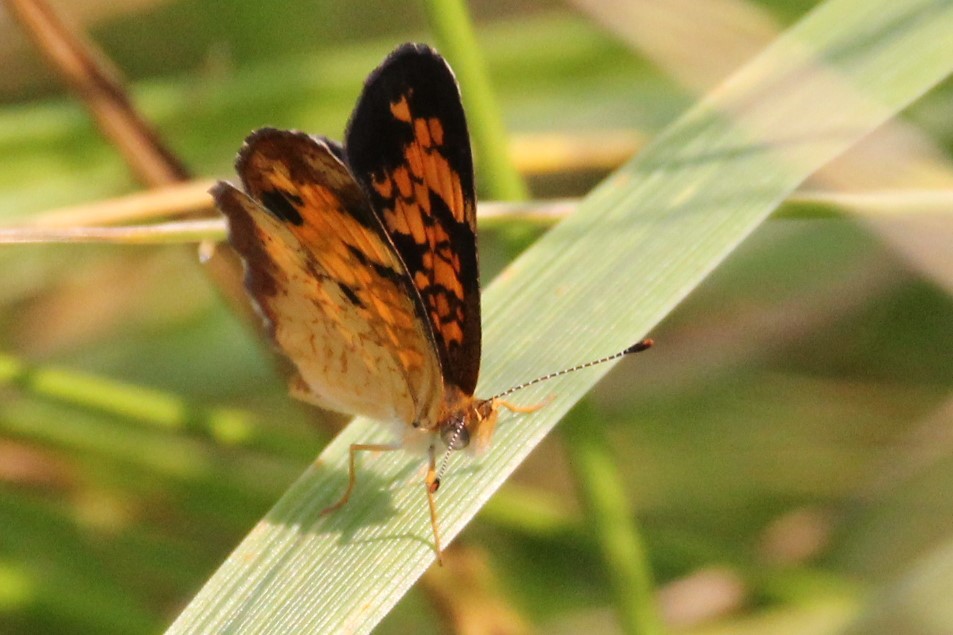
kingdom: Animalia
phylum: Arthropoda
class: Insecta
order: Lepidoptera
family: Nymphalidae
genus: Phyciodes
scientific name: Phyciodes tharos
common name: Pearl crescent
